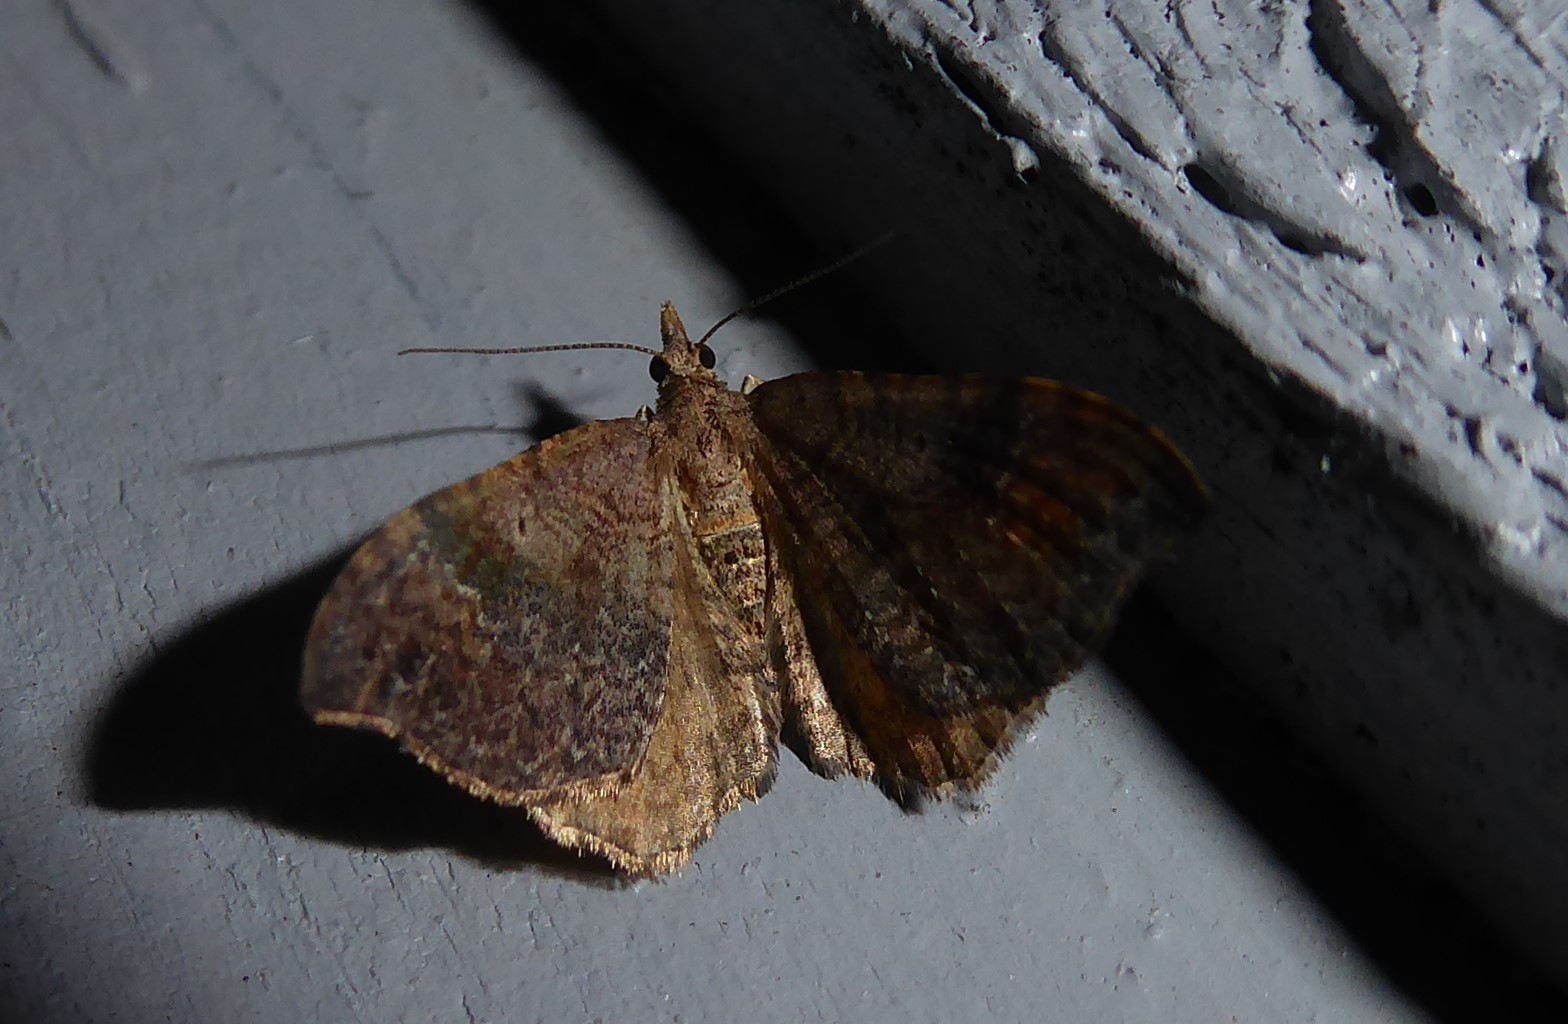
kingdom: Animalia
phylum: Arthropoda
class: Insecta
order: Lepidoptera
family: Geometridae
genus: Homodotis
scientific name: Homodotis megaspilata
